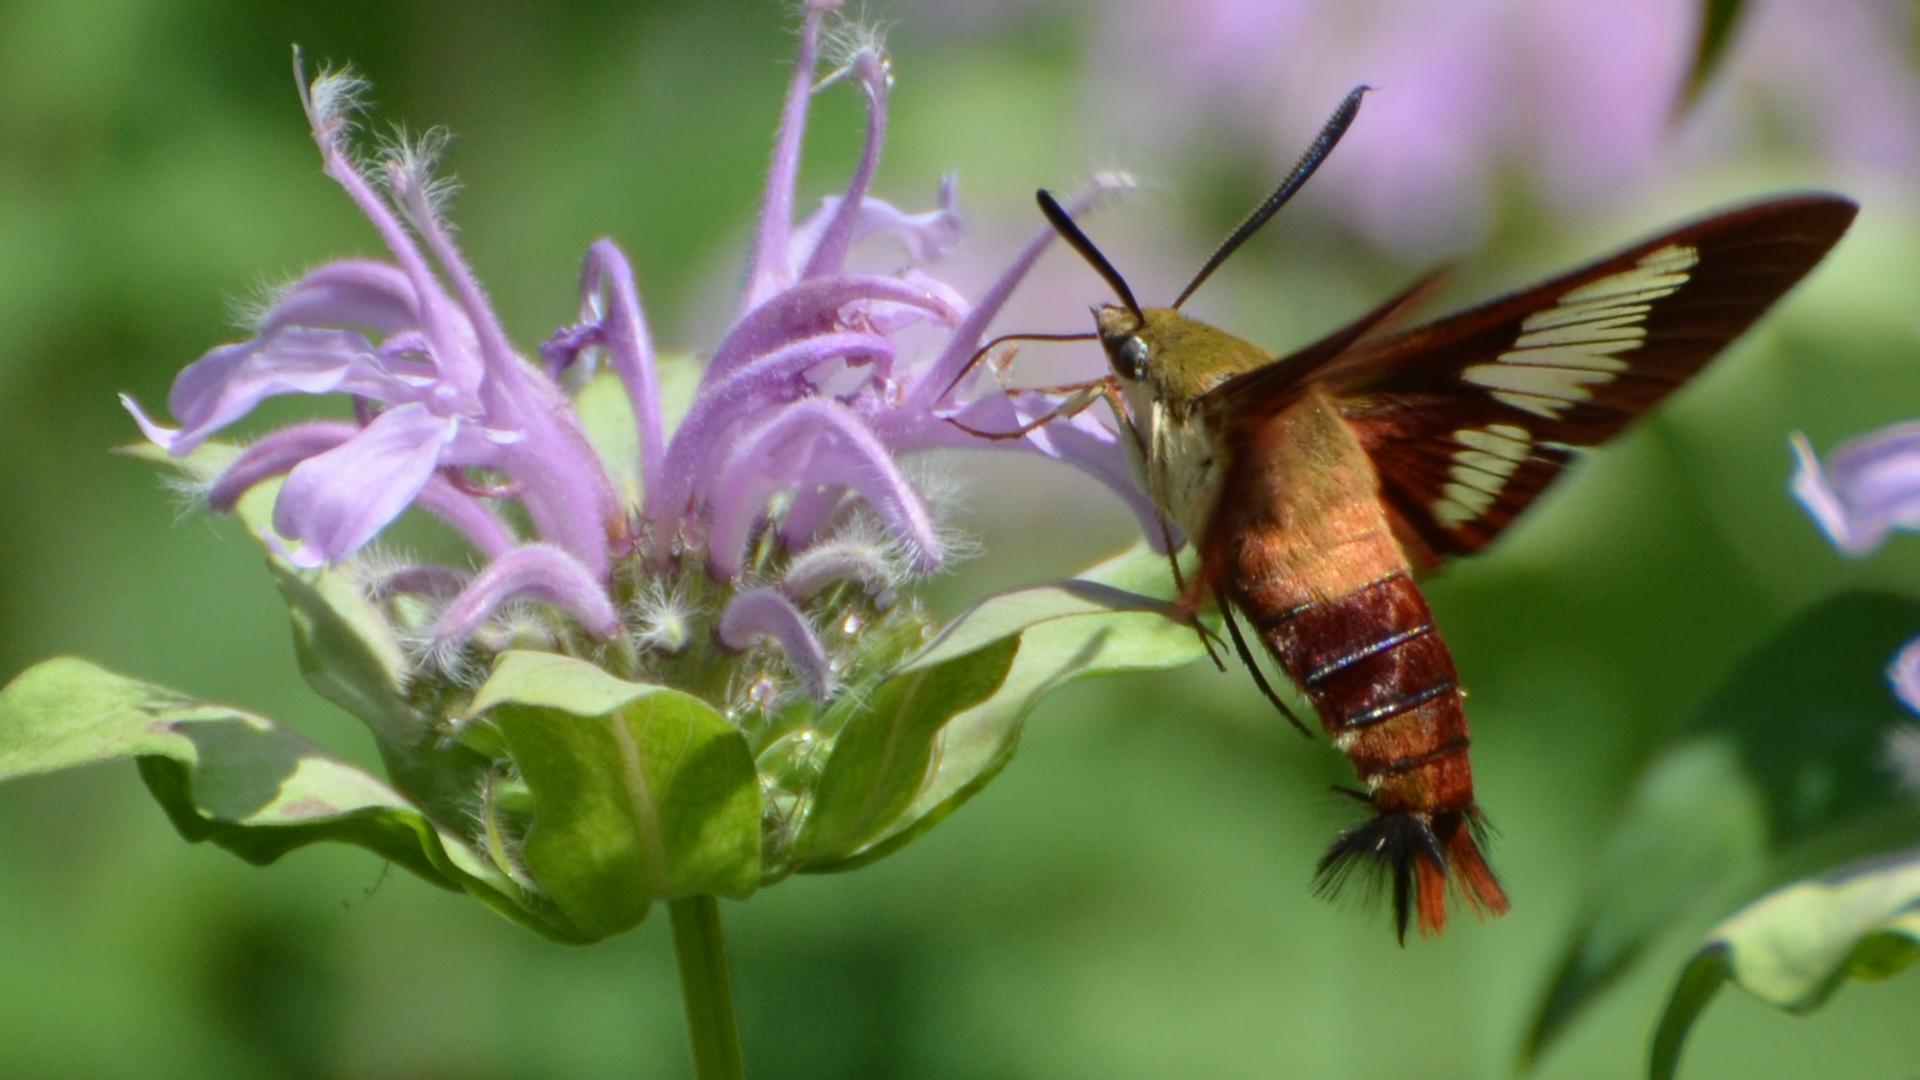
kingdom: Animalia
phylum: Arthropoda
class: Insecta
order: Lepidoptera
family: Sphingidae
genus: Hemaris
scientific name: Hemaris thysbe
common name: Common clear-wing
